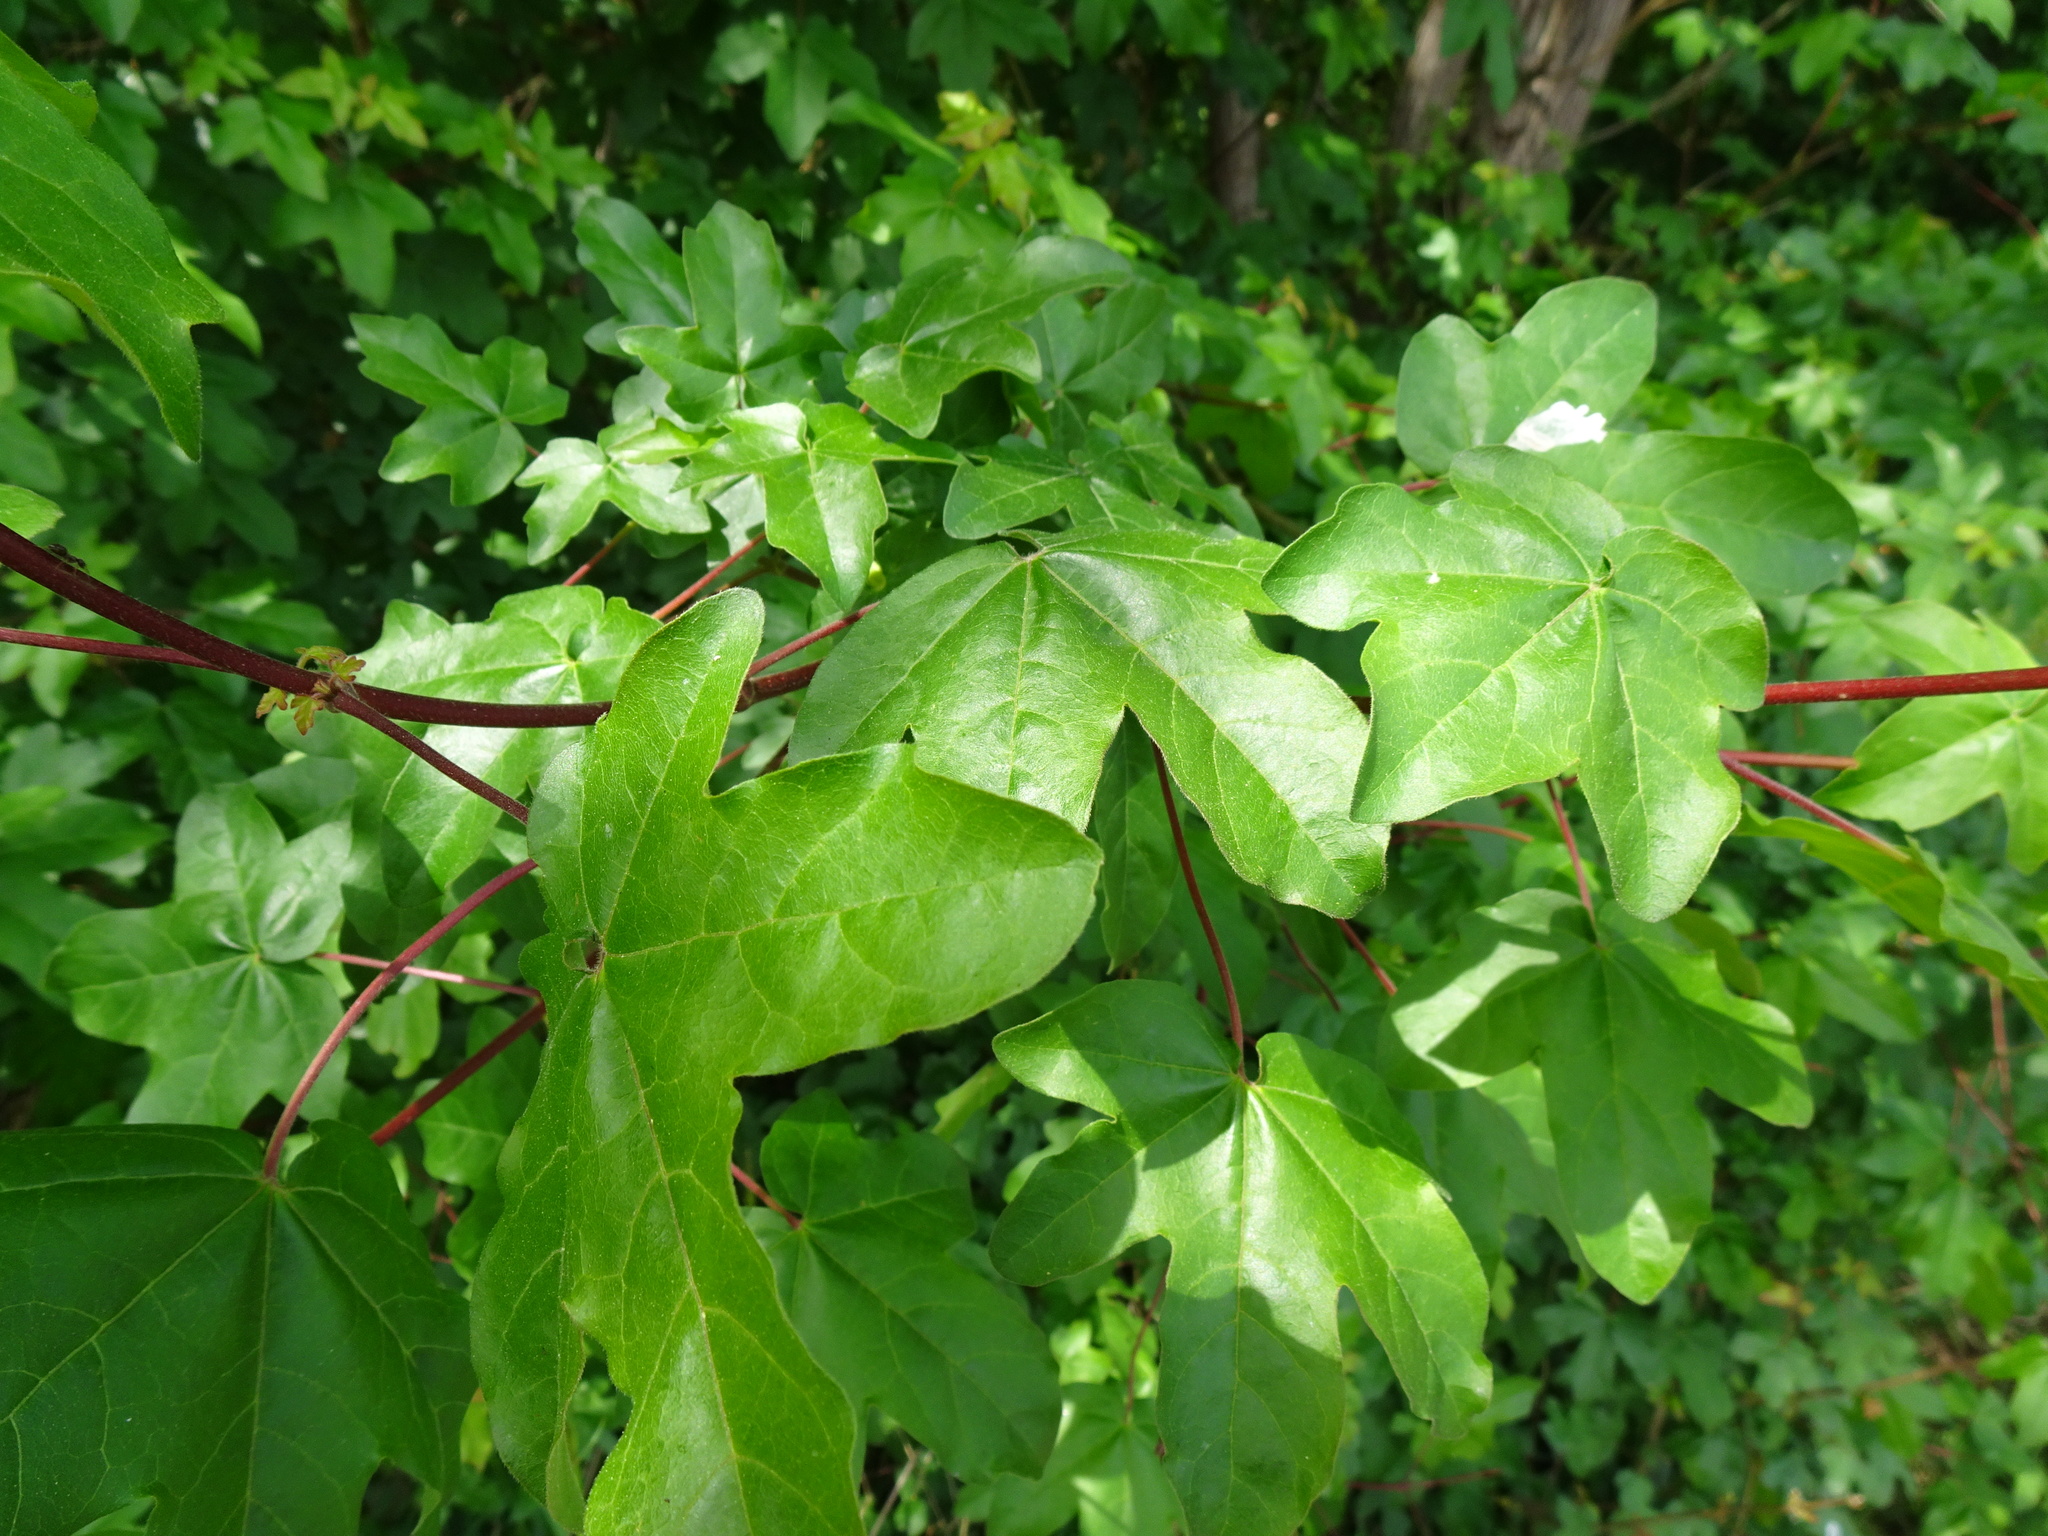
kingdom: Plantae
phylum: Tracheophyta
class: Magnoliopsida
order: Sapindales
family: Sapindaceae
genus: Acer
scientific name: Acer campestre
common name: Field maple
